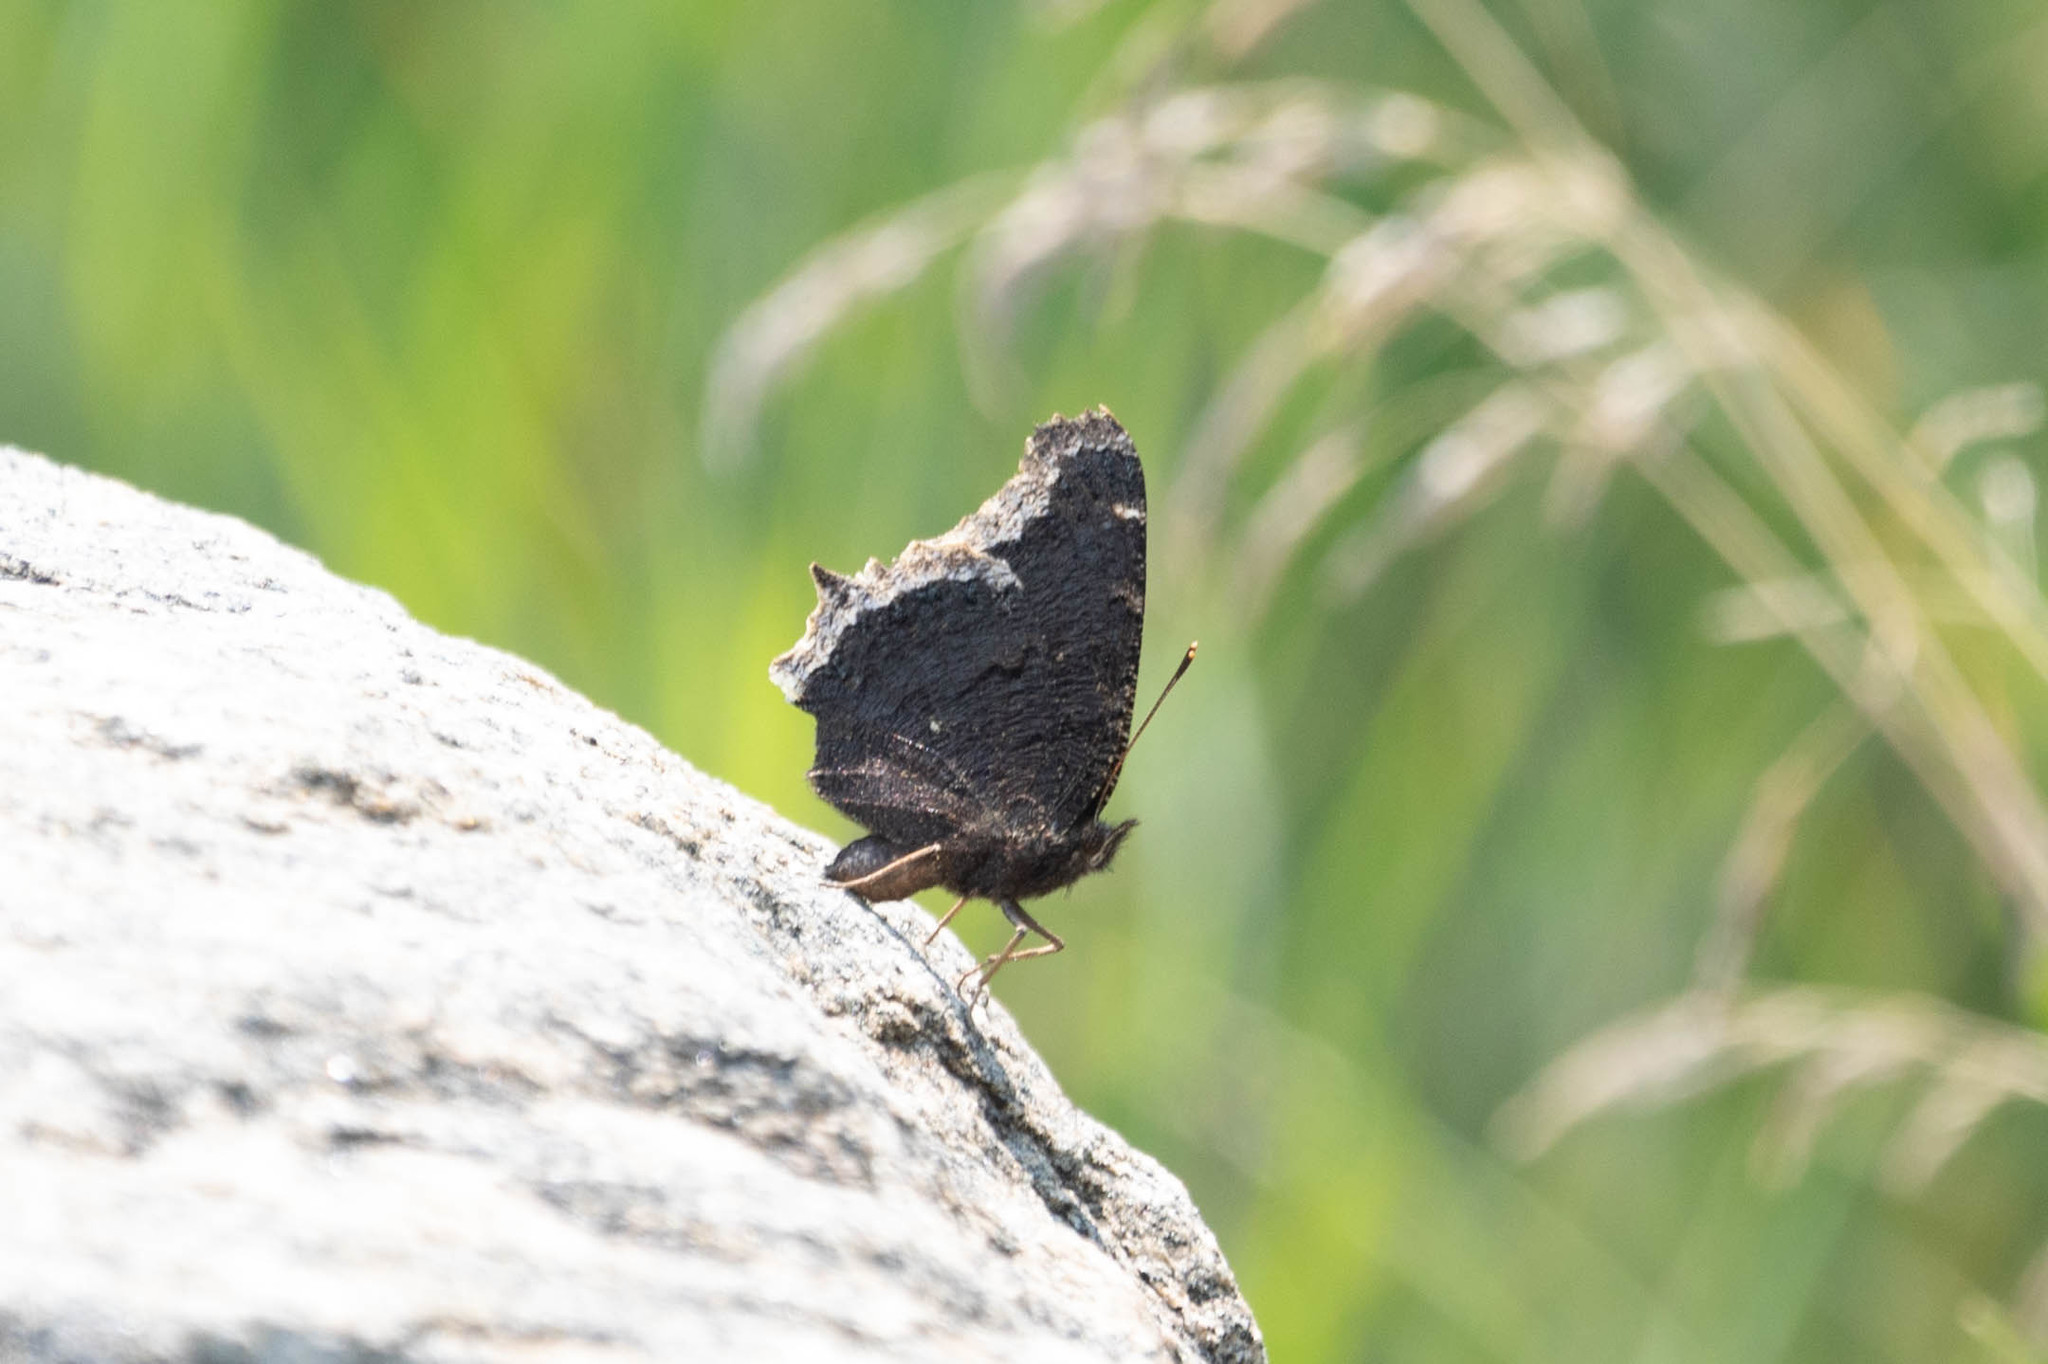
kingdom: Animalia
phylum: Arthropoda
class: Insecta
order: Lepidoptera
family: Nymphalidae
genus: Nymphalis
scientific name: Nymphalis antiopa
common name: Camberwell beauty
